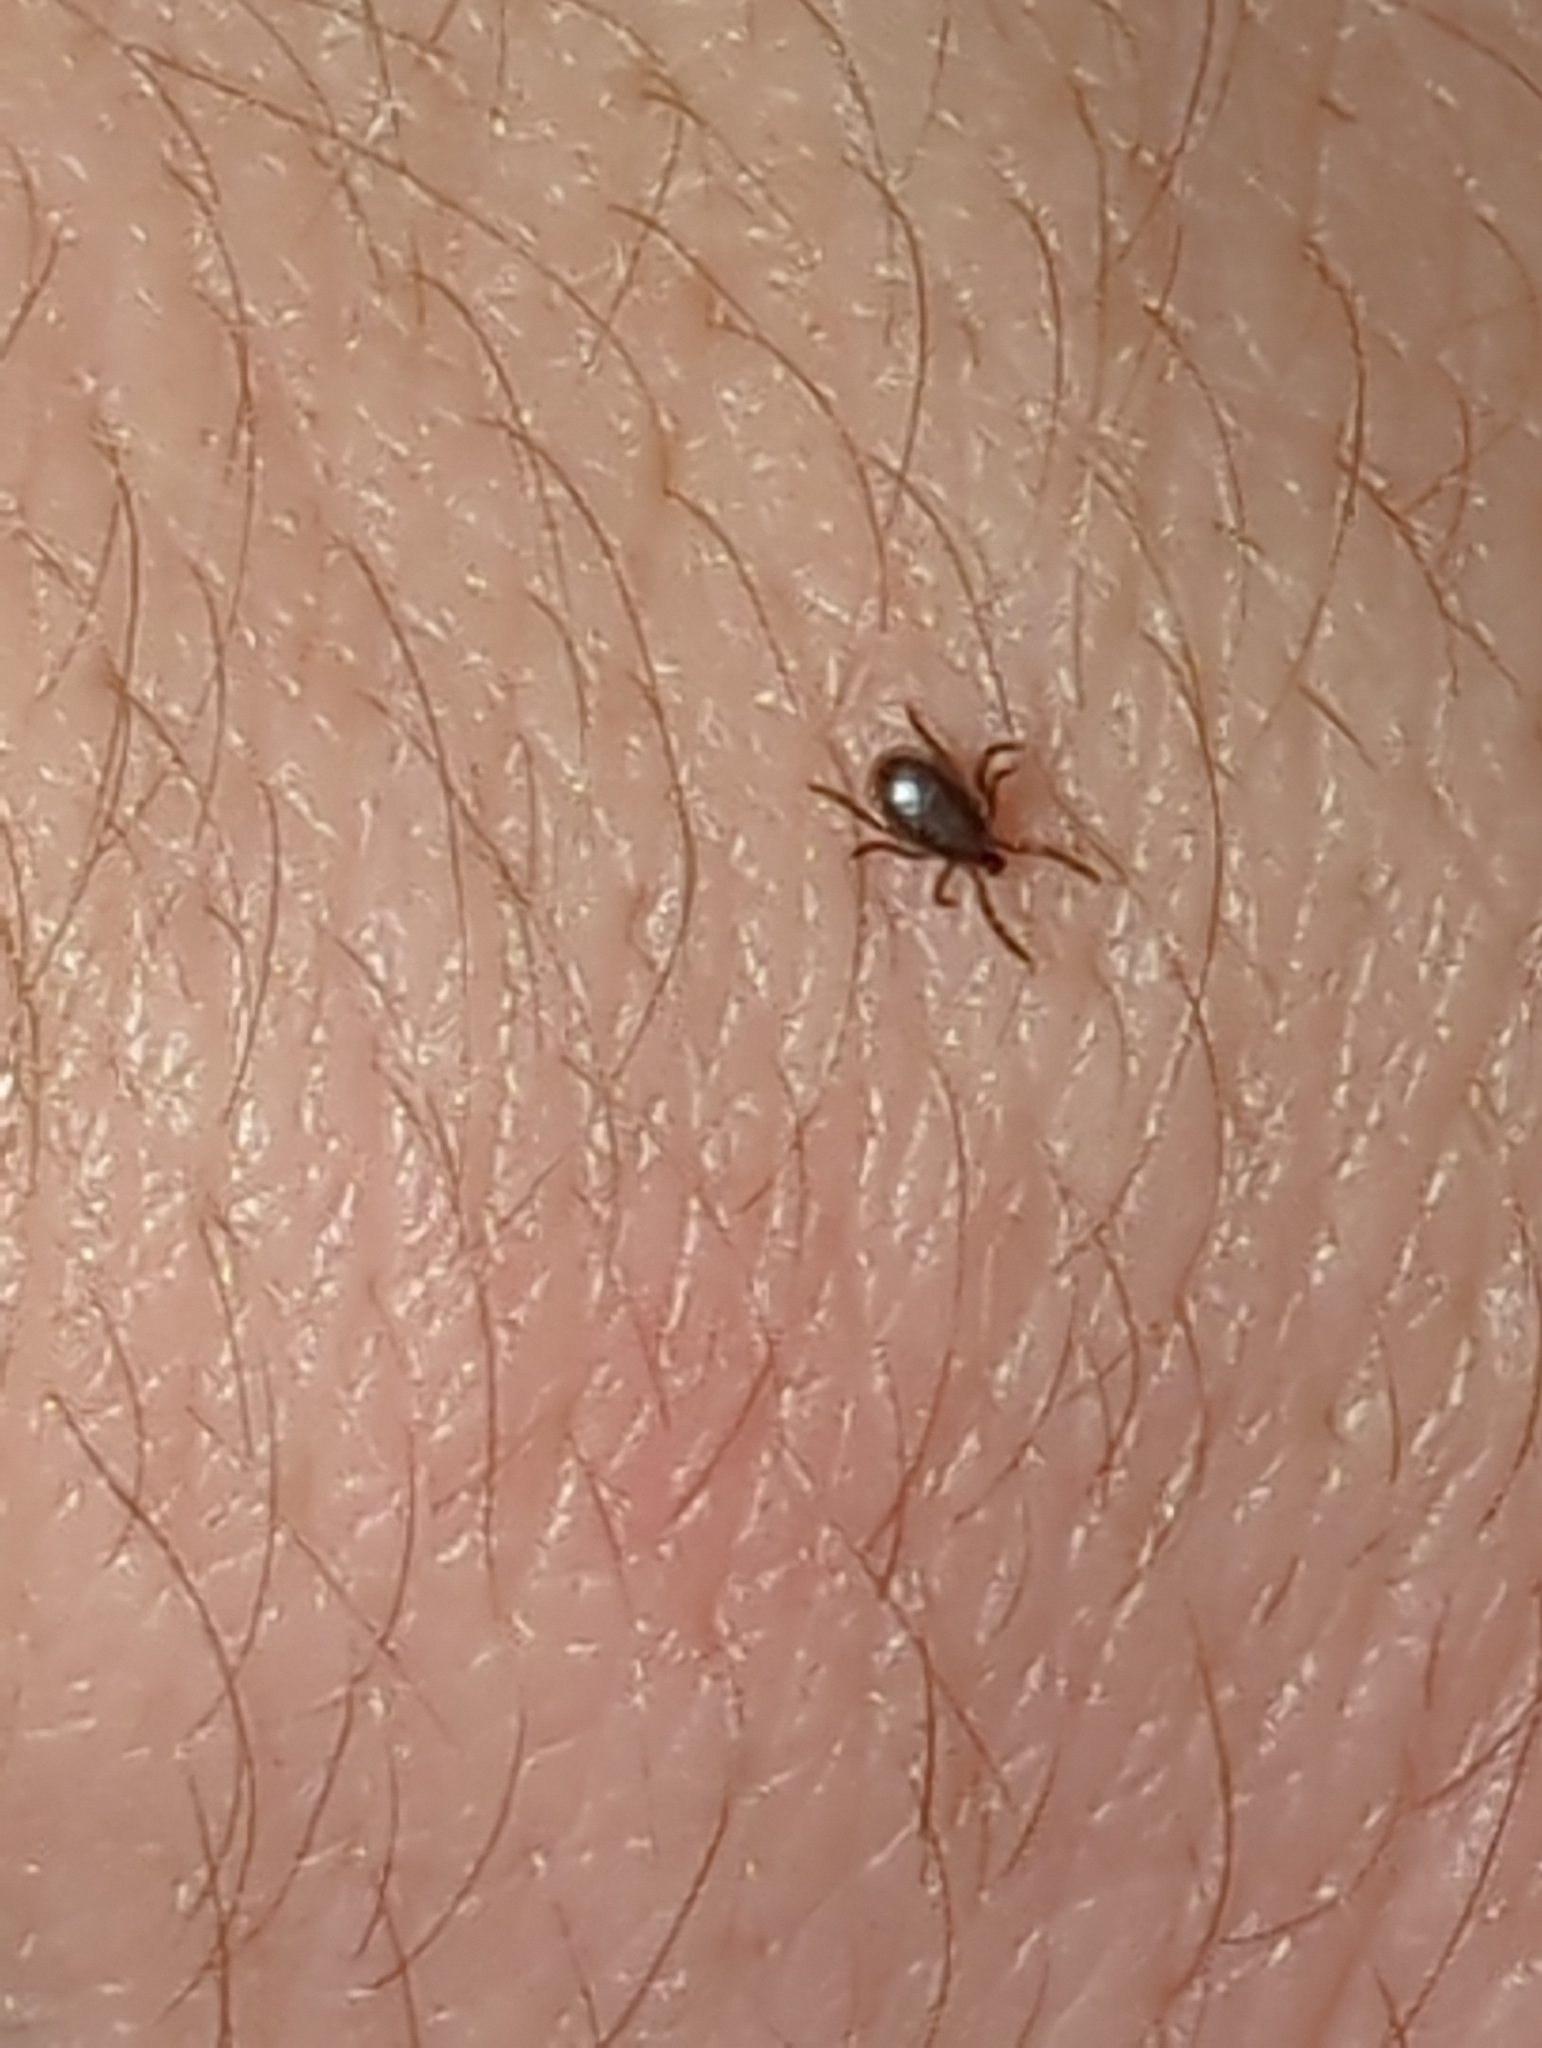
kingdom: Animalia
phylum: Arthropoda
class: Arachnida
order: Ixodida
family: Ixodidae
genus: Ixodes
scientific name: Ixodes scapularis
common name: Black legged tick
